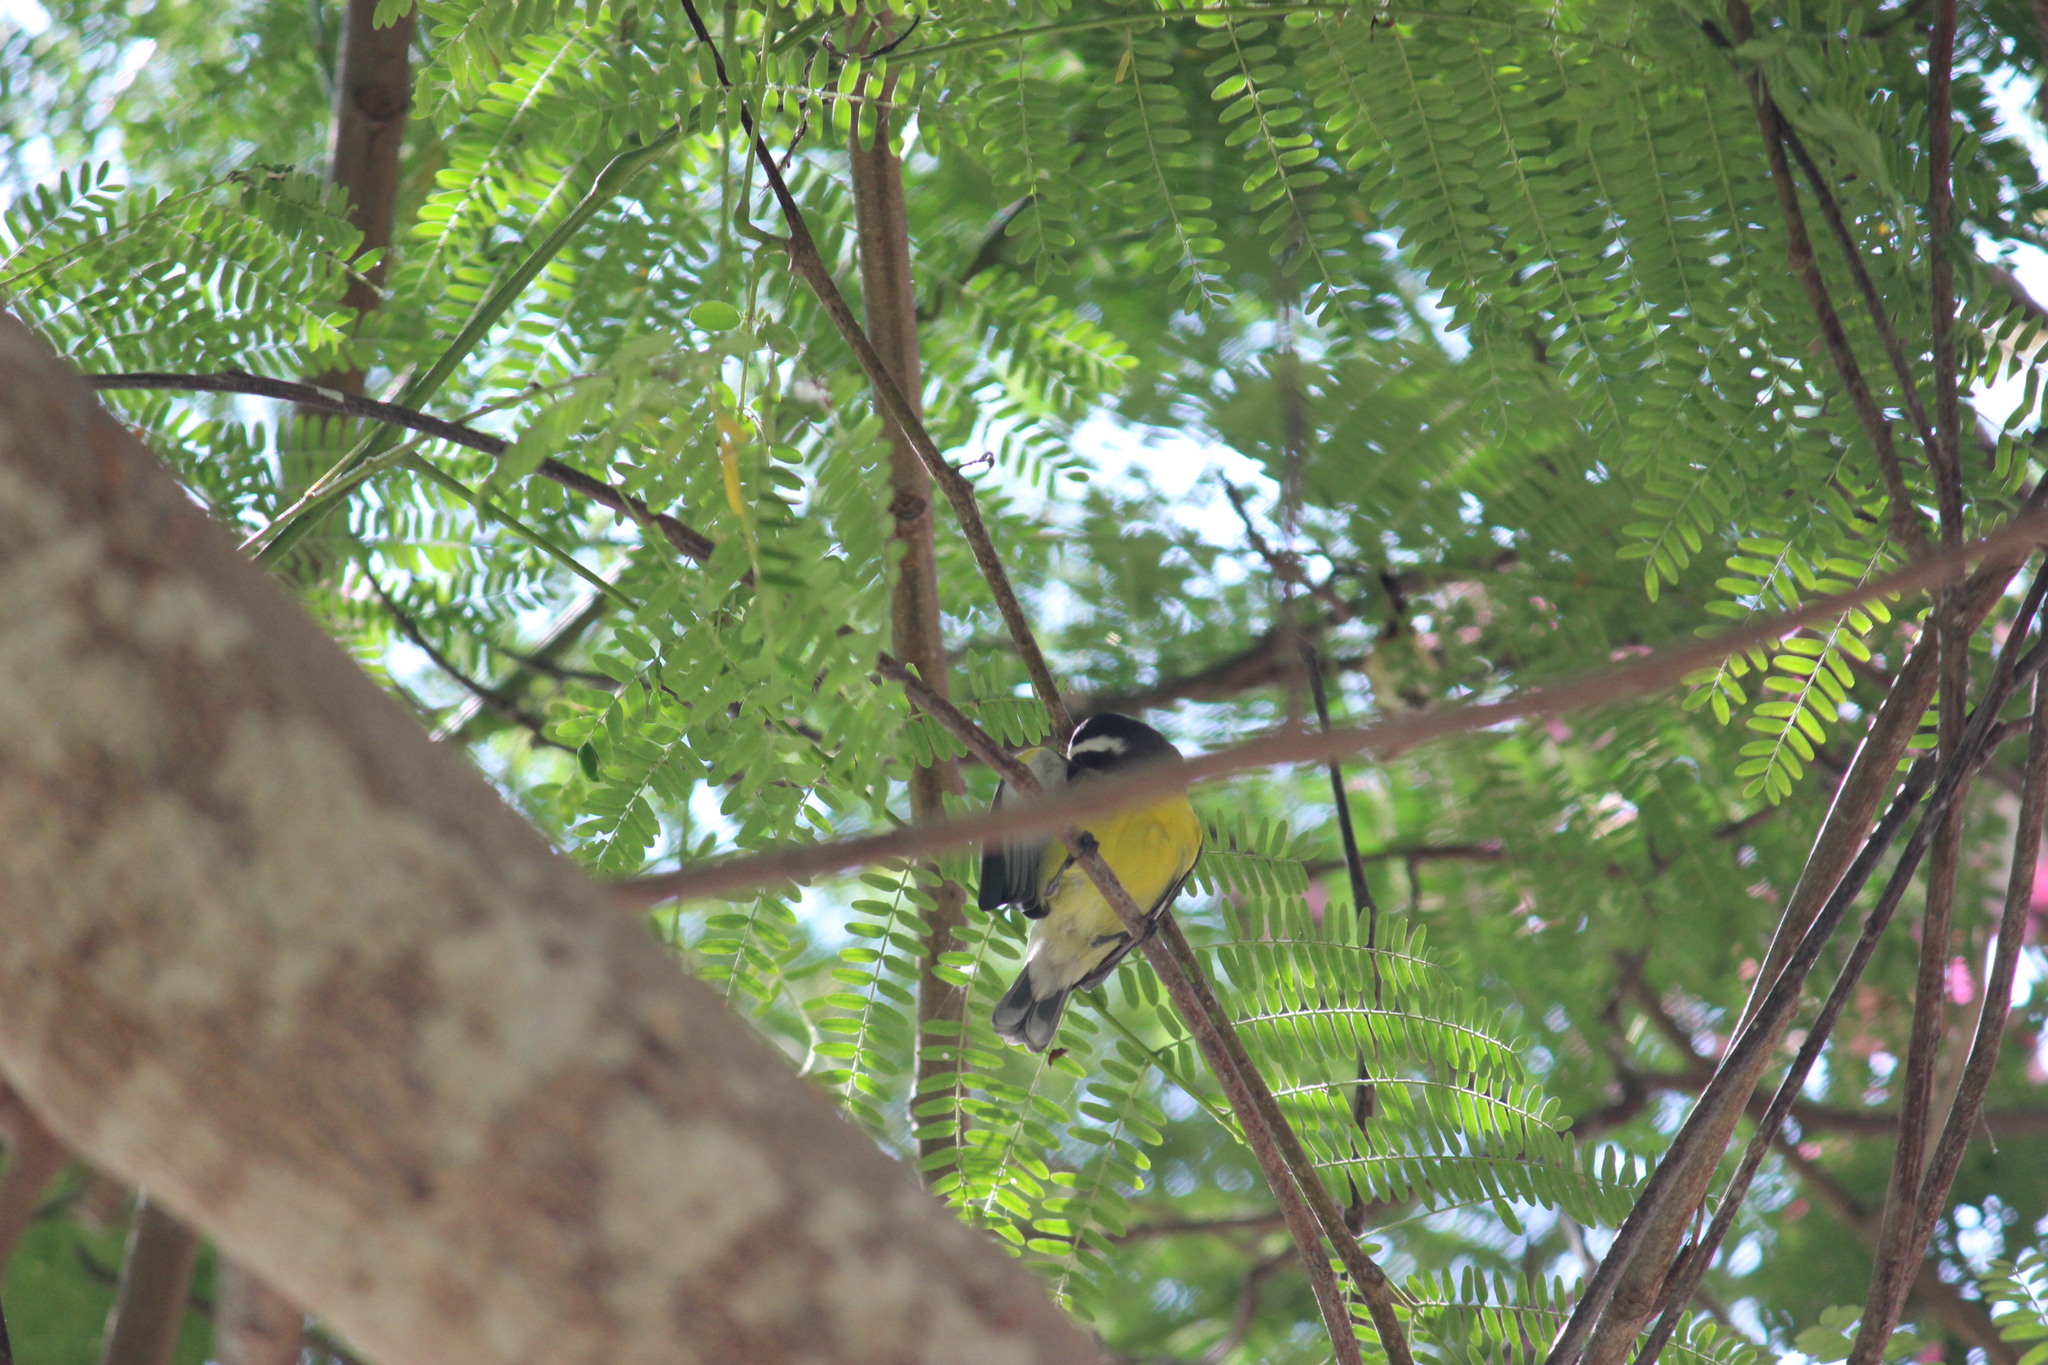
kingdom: Animalia
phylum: Chordata
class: Aves
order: Passeriformes
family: Thraupidae
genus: Coereba
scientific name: Coereba flaveola
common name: Bananaquit
